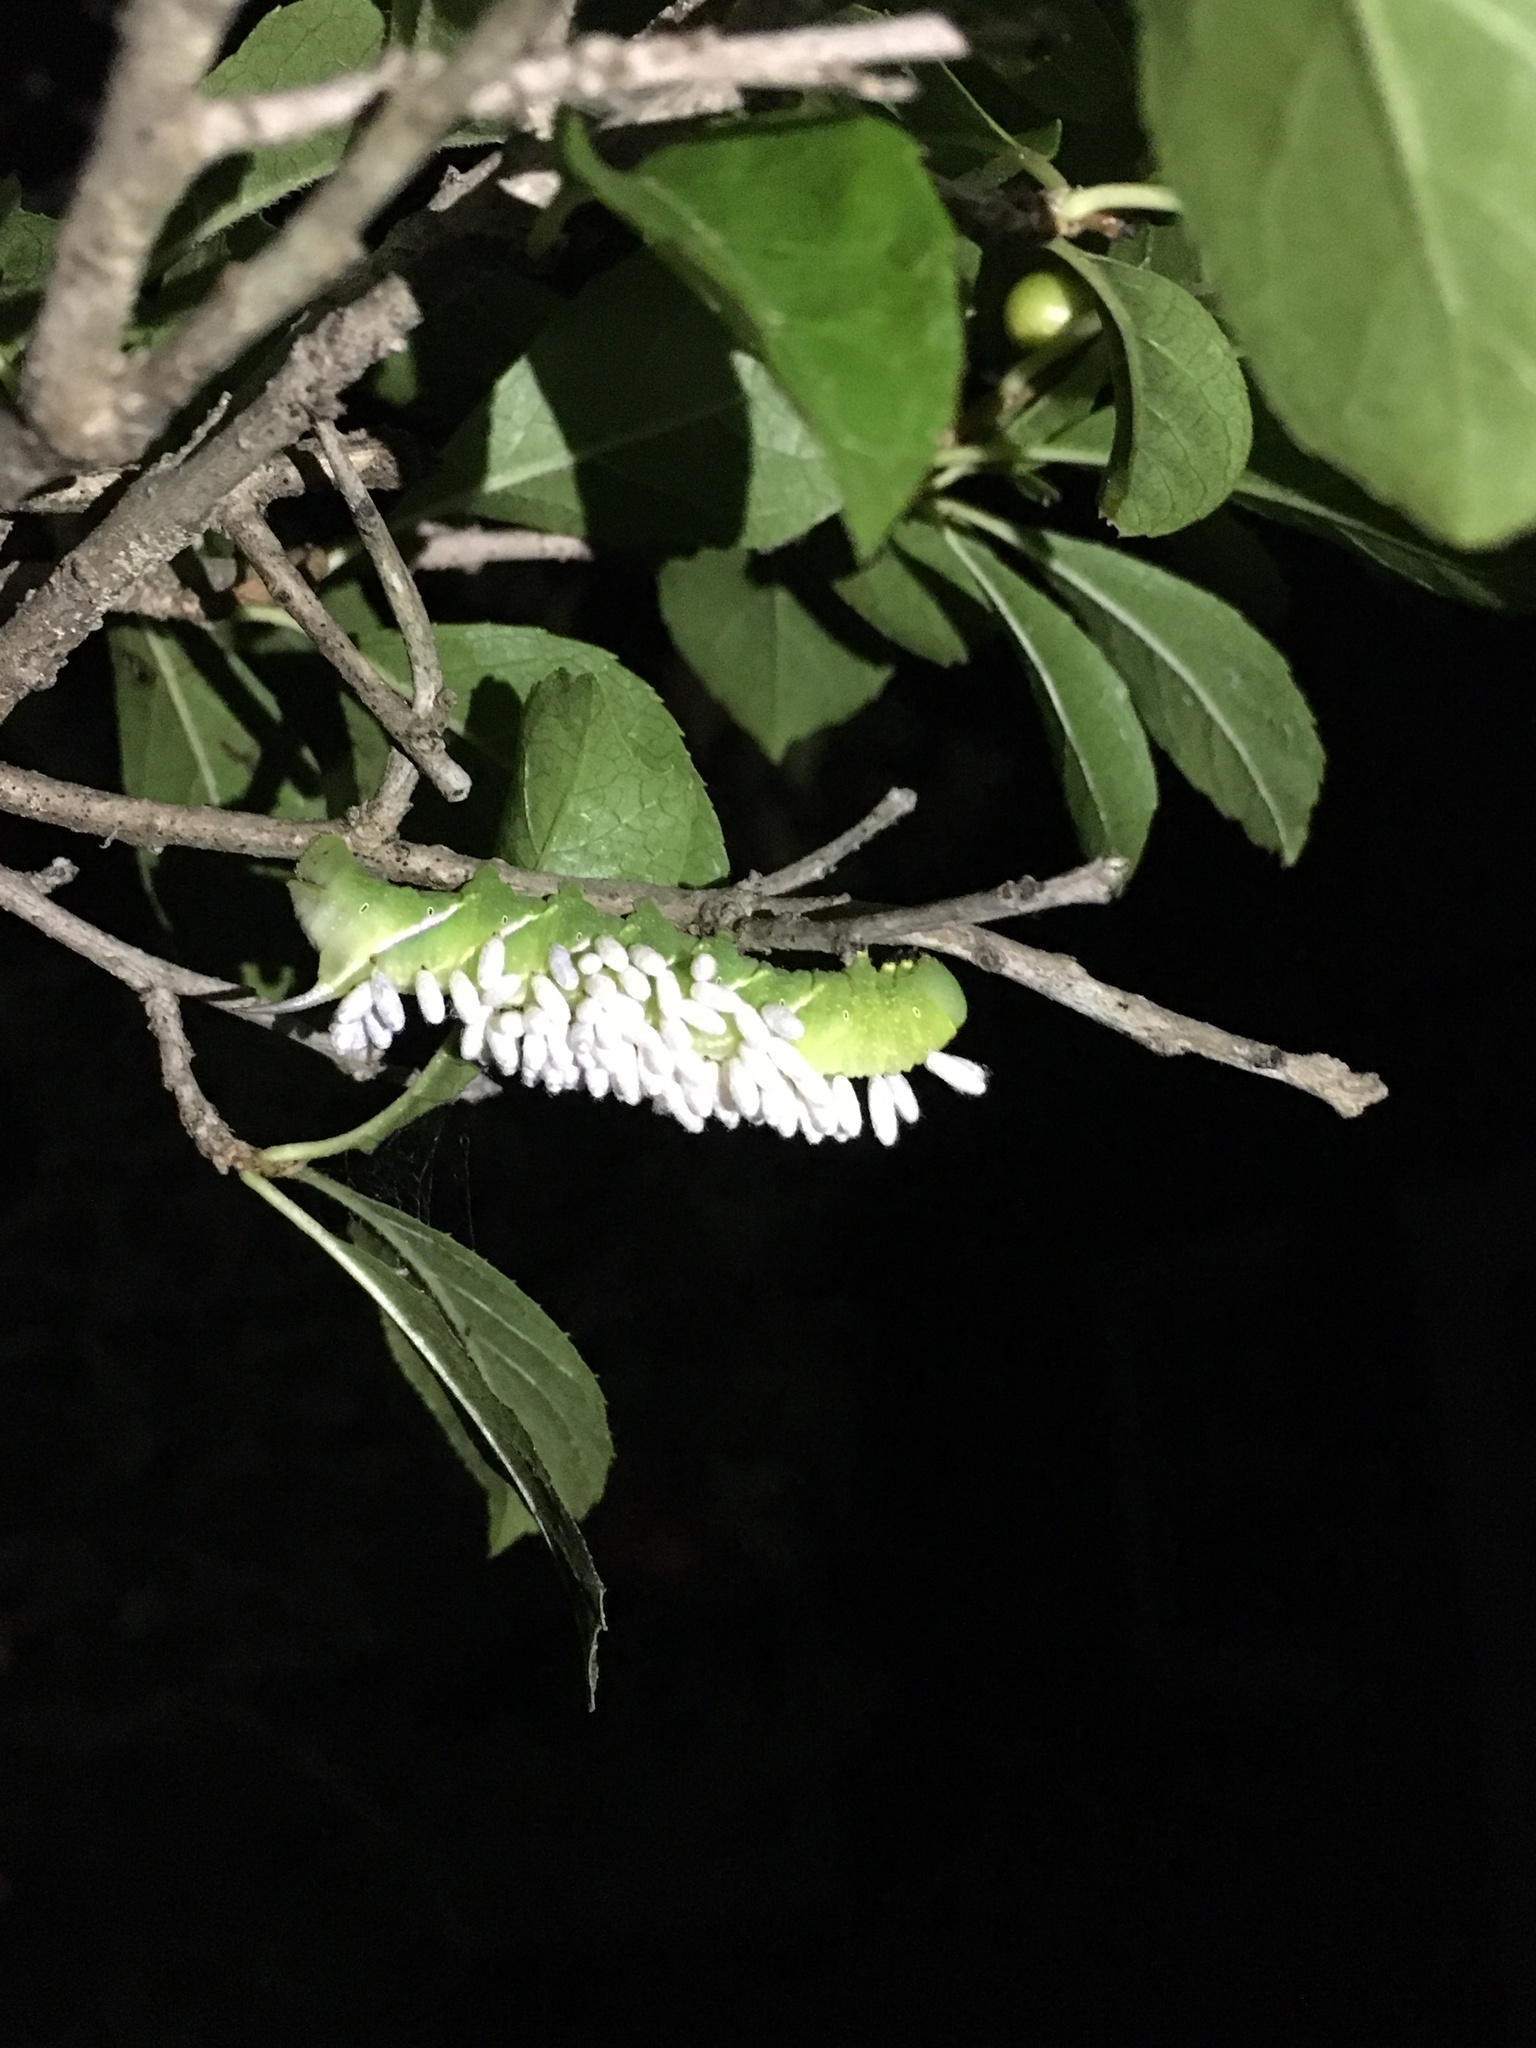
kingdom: Animalia
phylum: Arthropoda
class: Insecta
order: Lepidoptera
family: Sphingidae
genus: Dolba
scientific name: Dolba hyloeus
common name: Pawpaw sphinx
